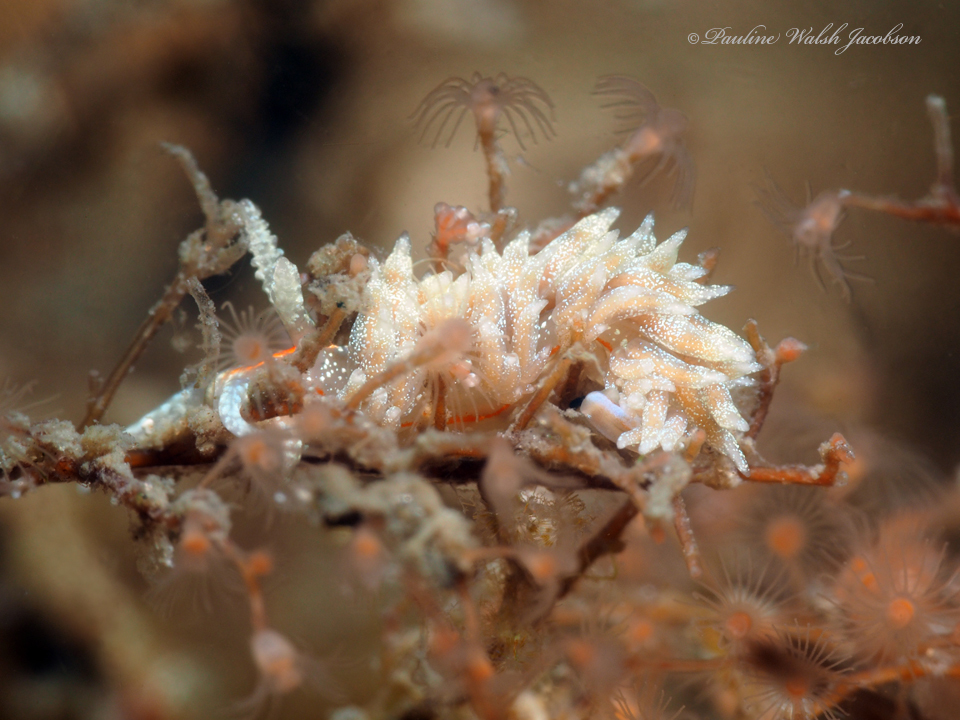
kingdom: Animalia
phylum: Mollusca
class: Gastropoda
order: Nudibranchia
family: Myrrhinidae
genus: Dondice
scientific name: Dondice juansanchezi
